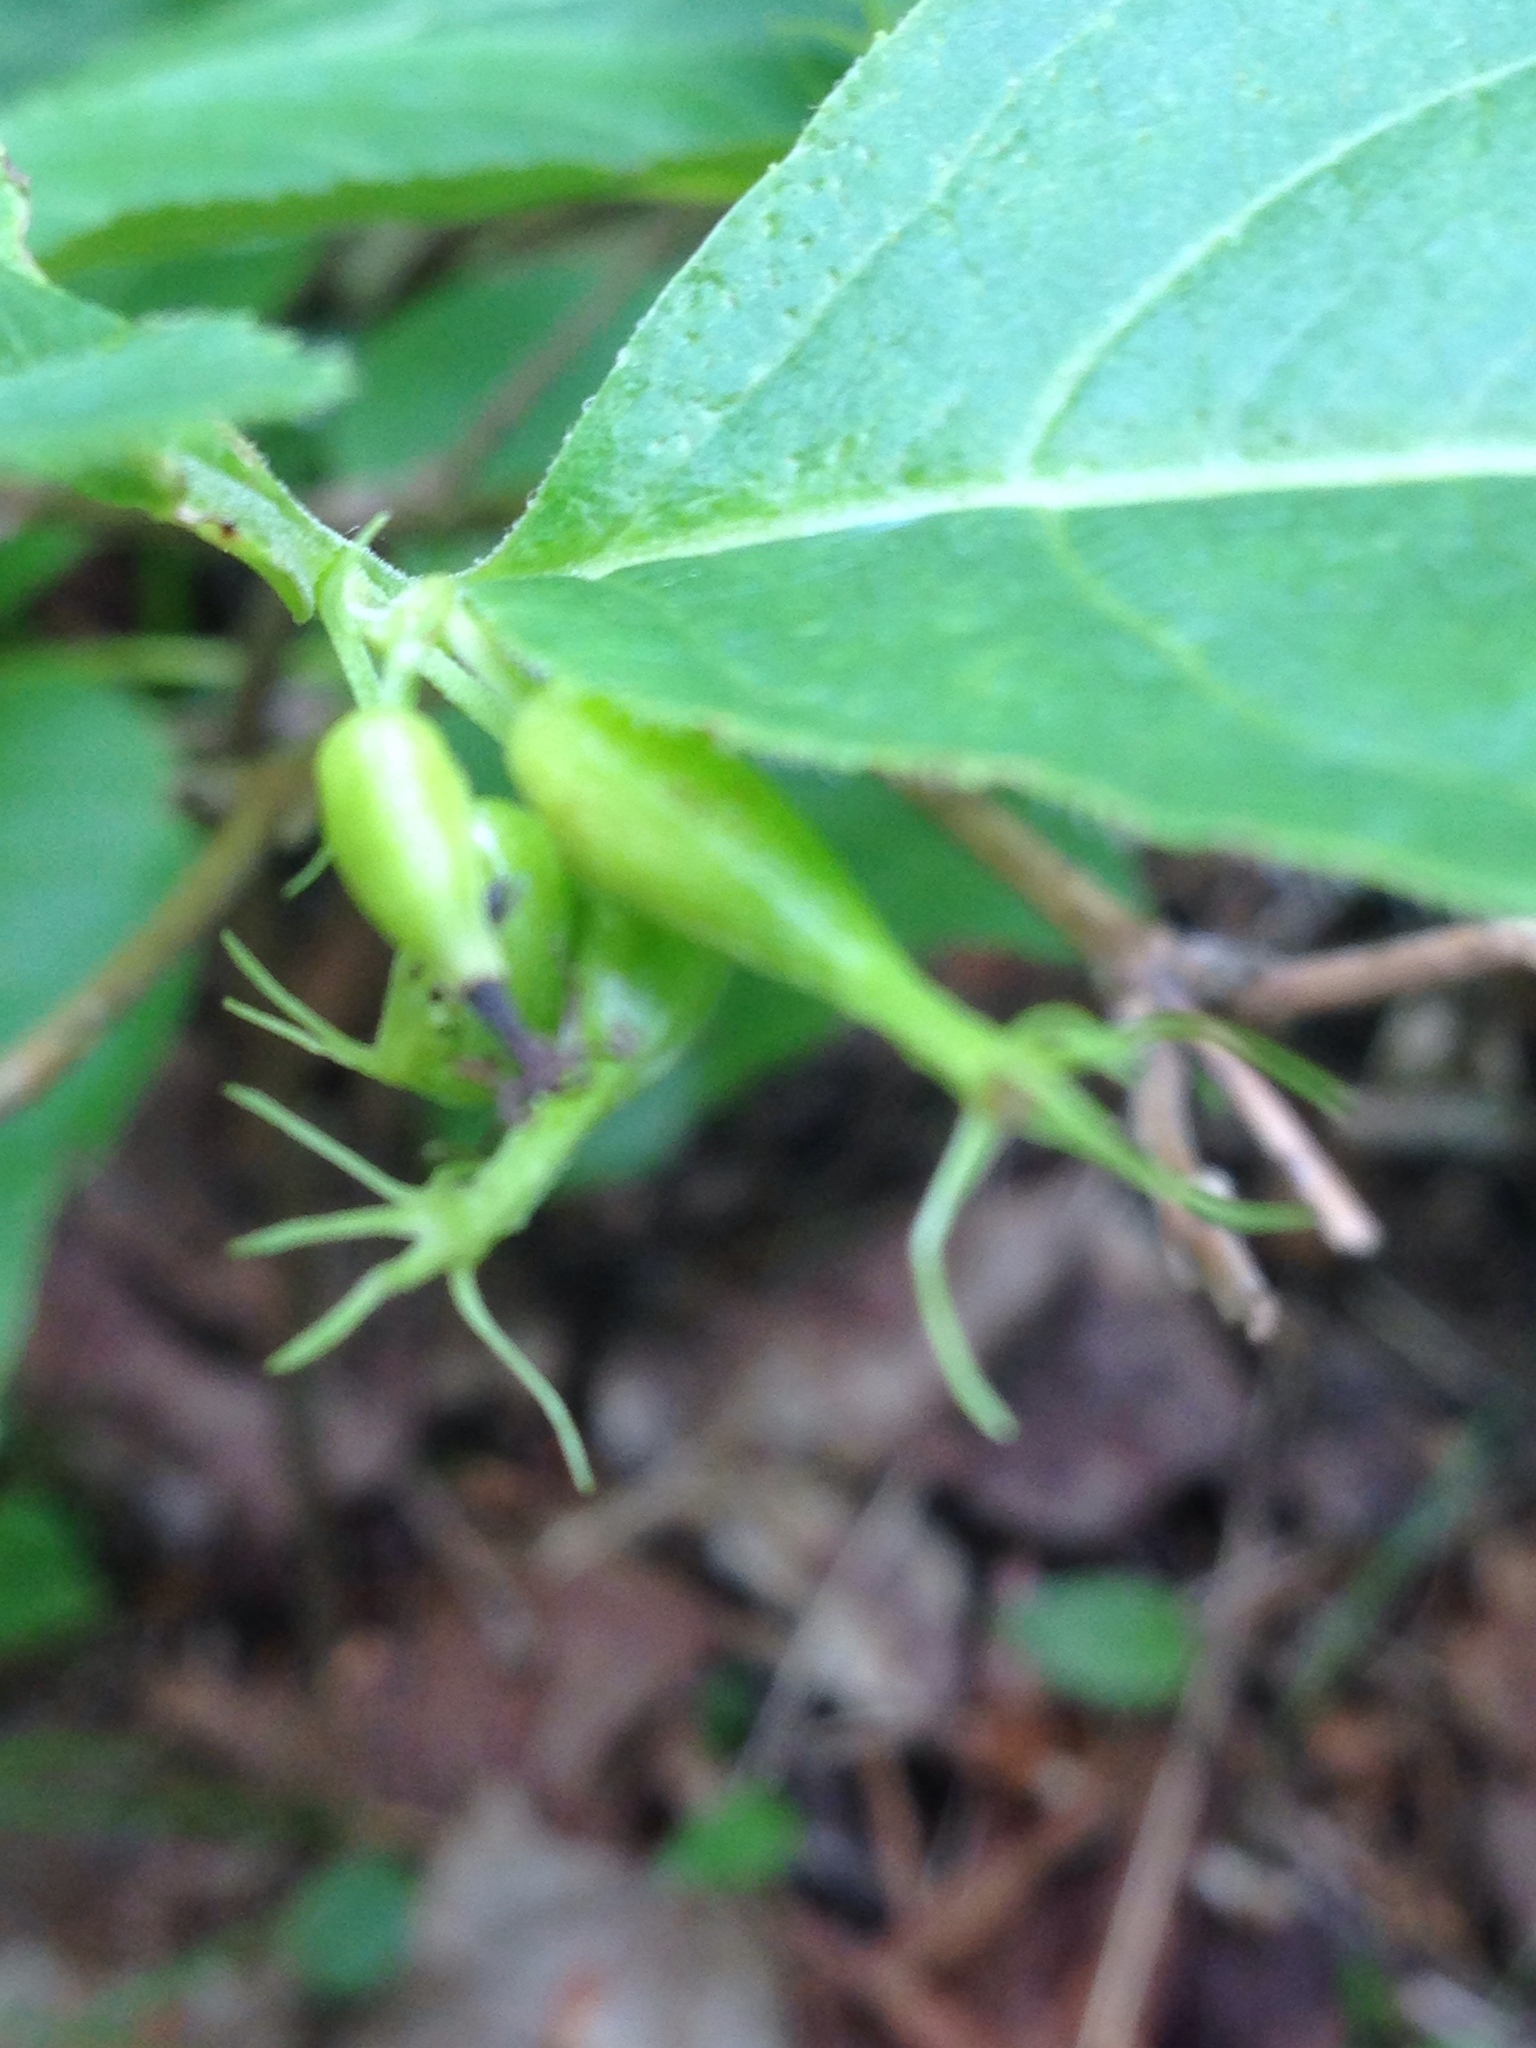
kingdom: Plantae
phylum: Tracheophyta
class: Magnoliopsida
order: Dipsacales
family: Caprifoliaceae
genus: Diervilla
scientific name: Diervilla lonicera
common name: Bush-honeysuckle
